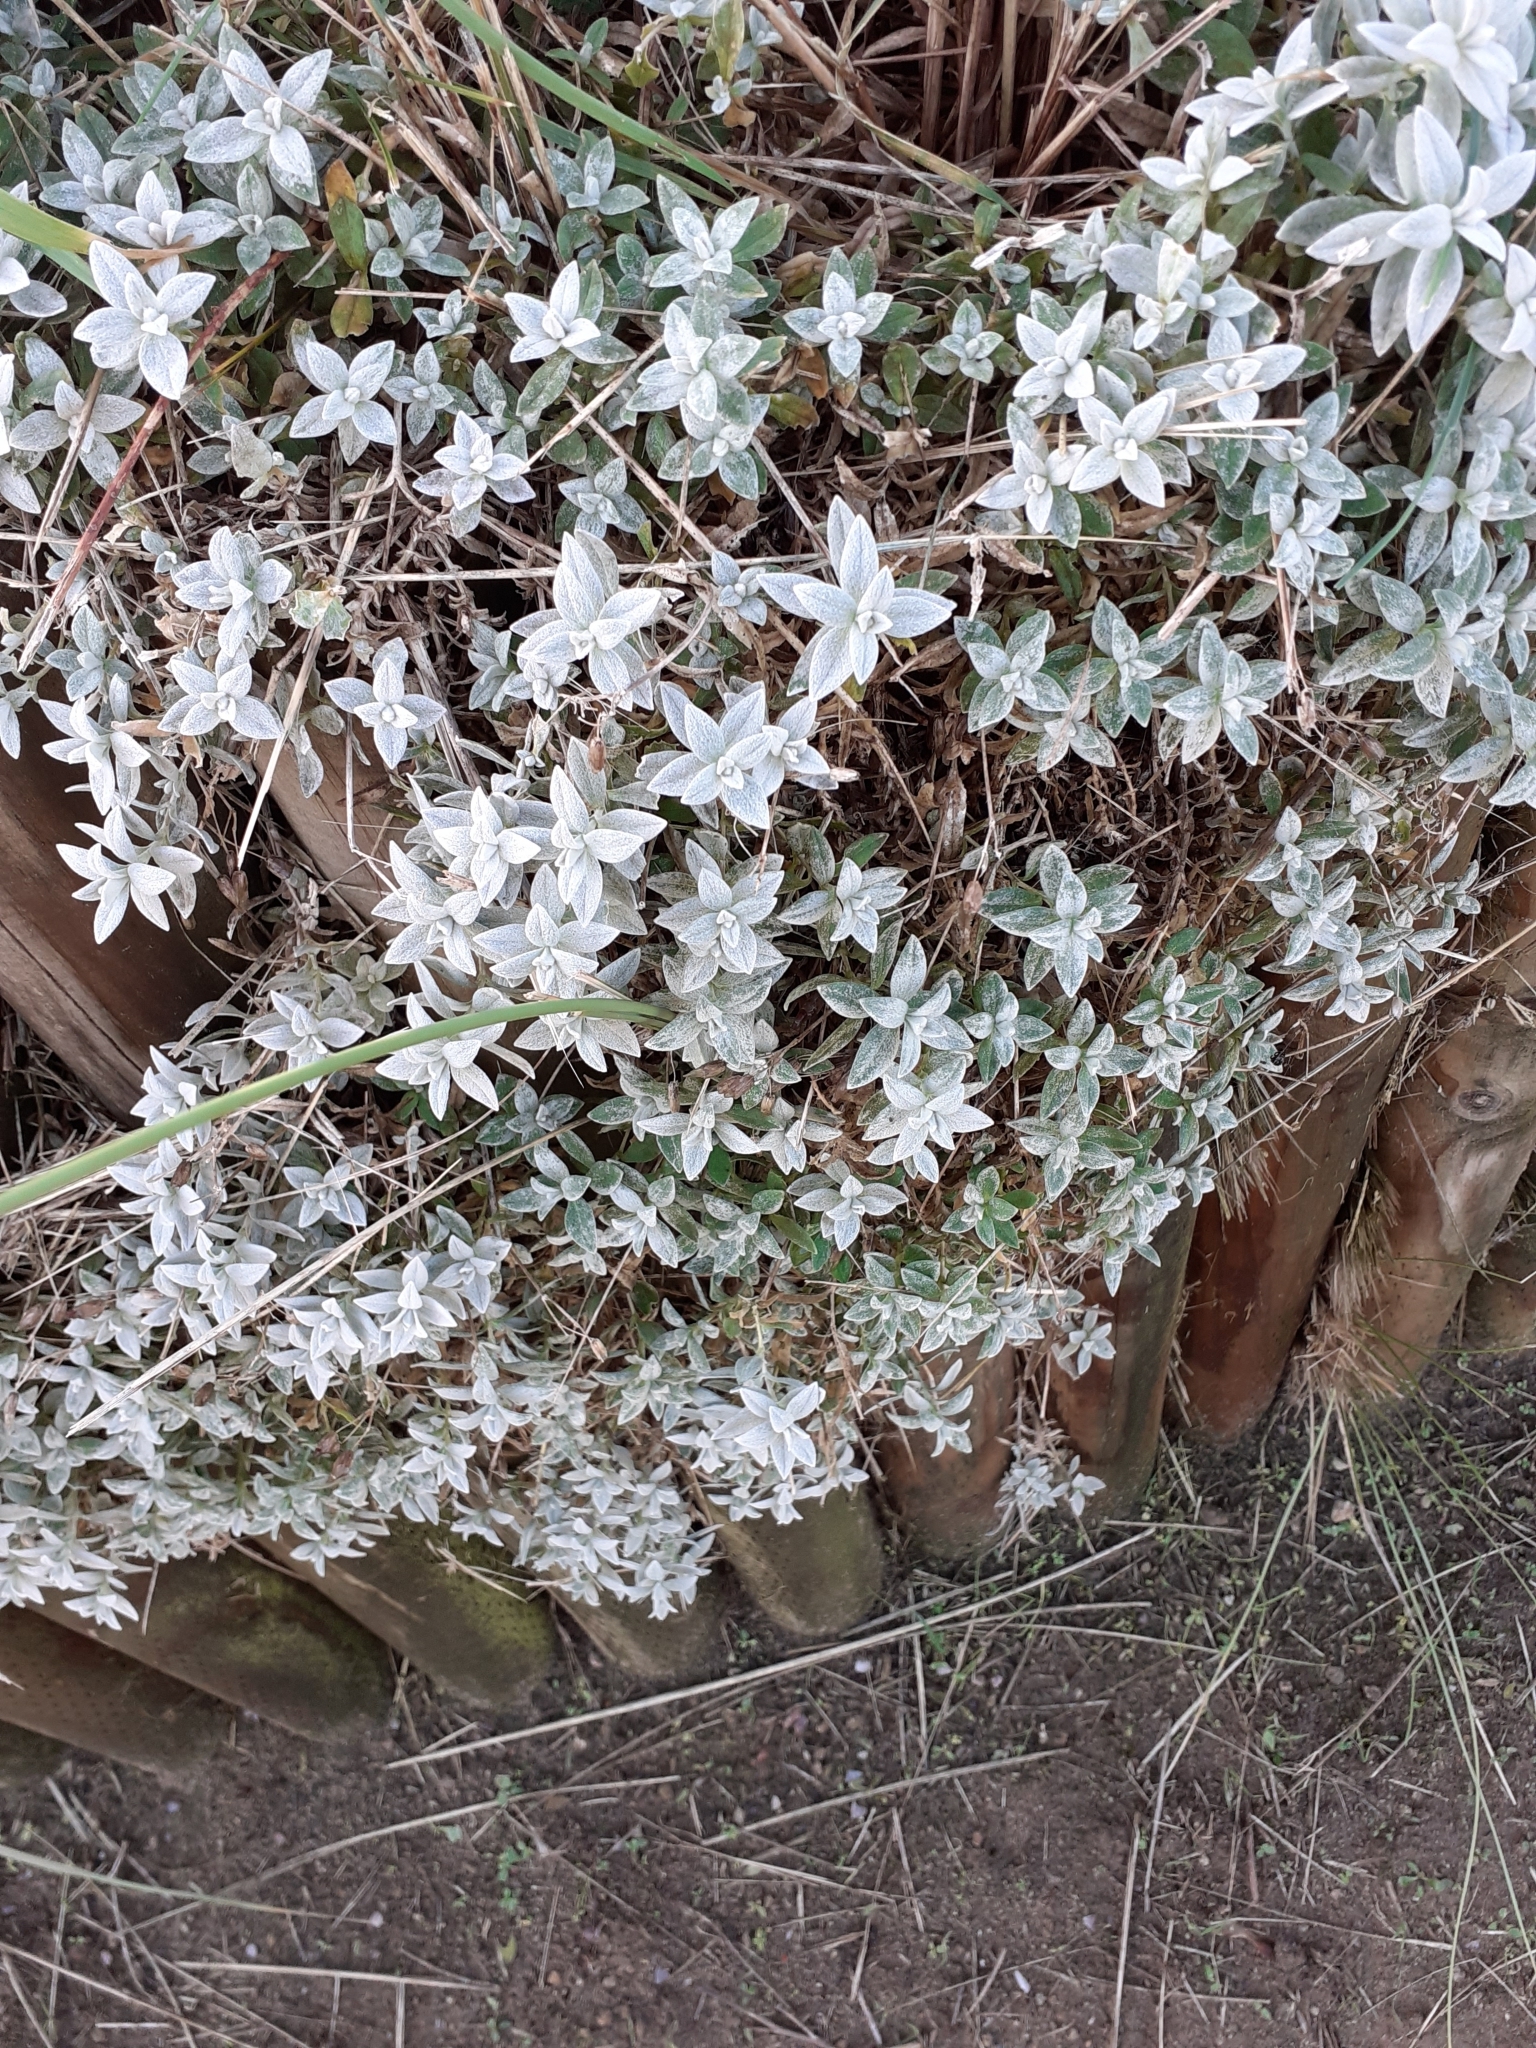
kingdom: Plantae
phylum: Tracheophyta
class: Magnoliopsida
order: Caryophyllales
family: Caryophyllaceae
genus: Cerastium
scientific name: Cerastium tomentosum
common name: Snow-in-summer
